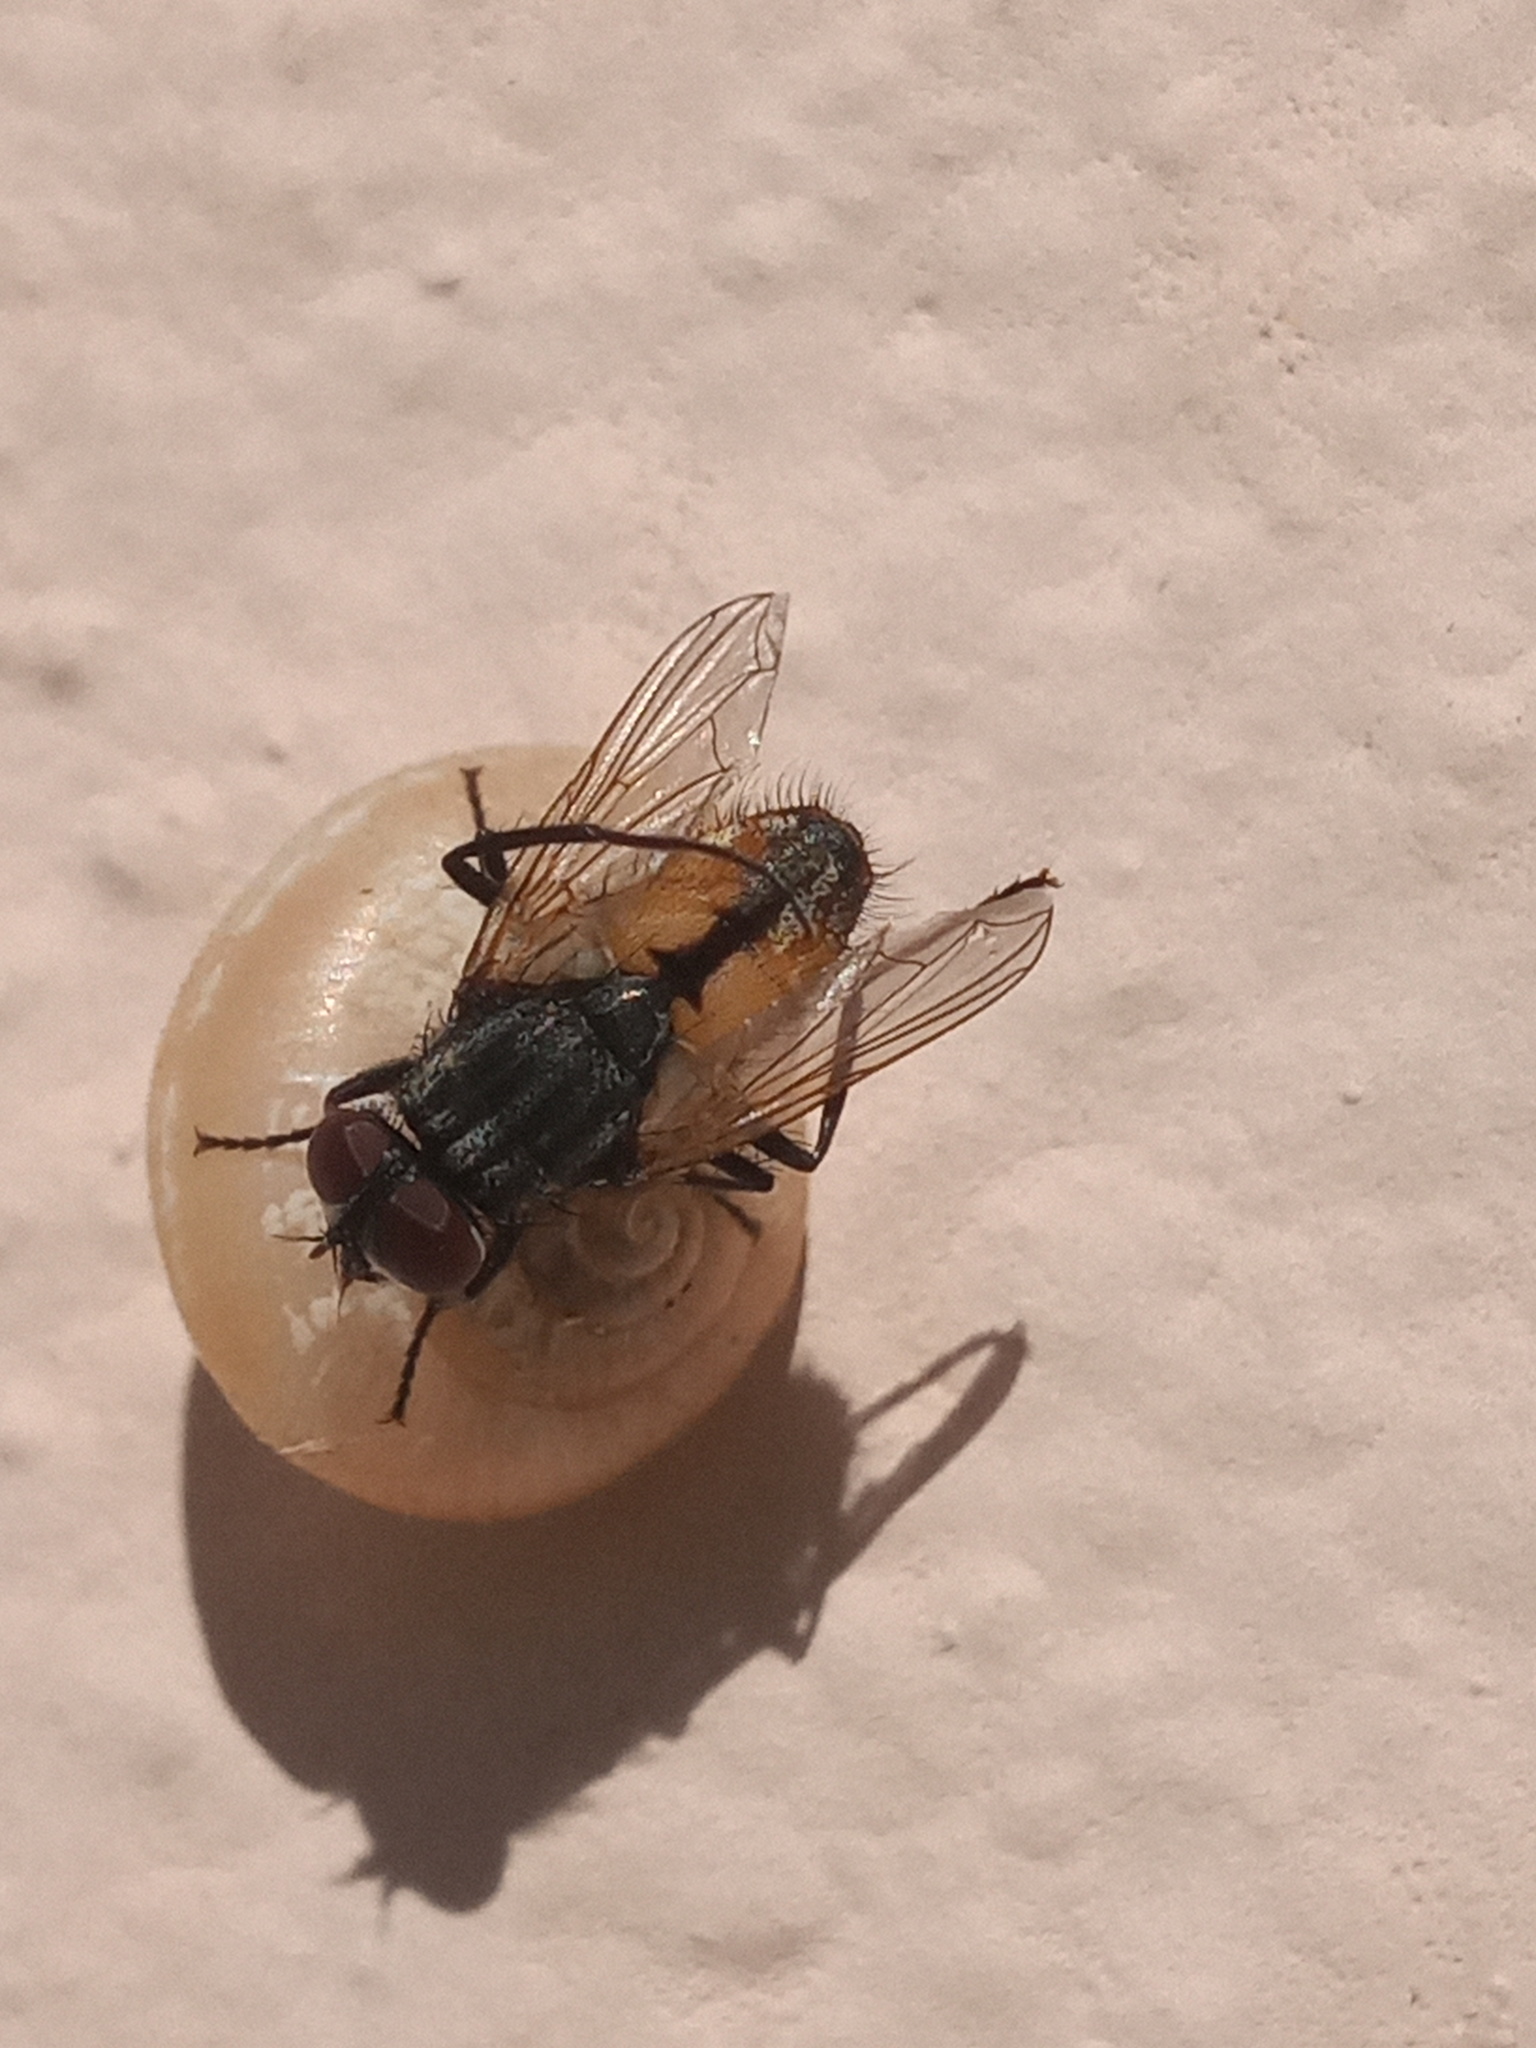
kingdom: Animalia
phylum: Arthropoda
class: Insecta
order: Diptera
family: Muscidae
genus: Musca
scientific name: Musca domestica
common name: House fly
